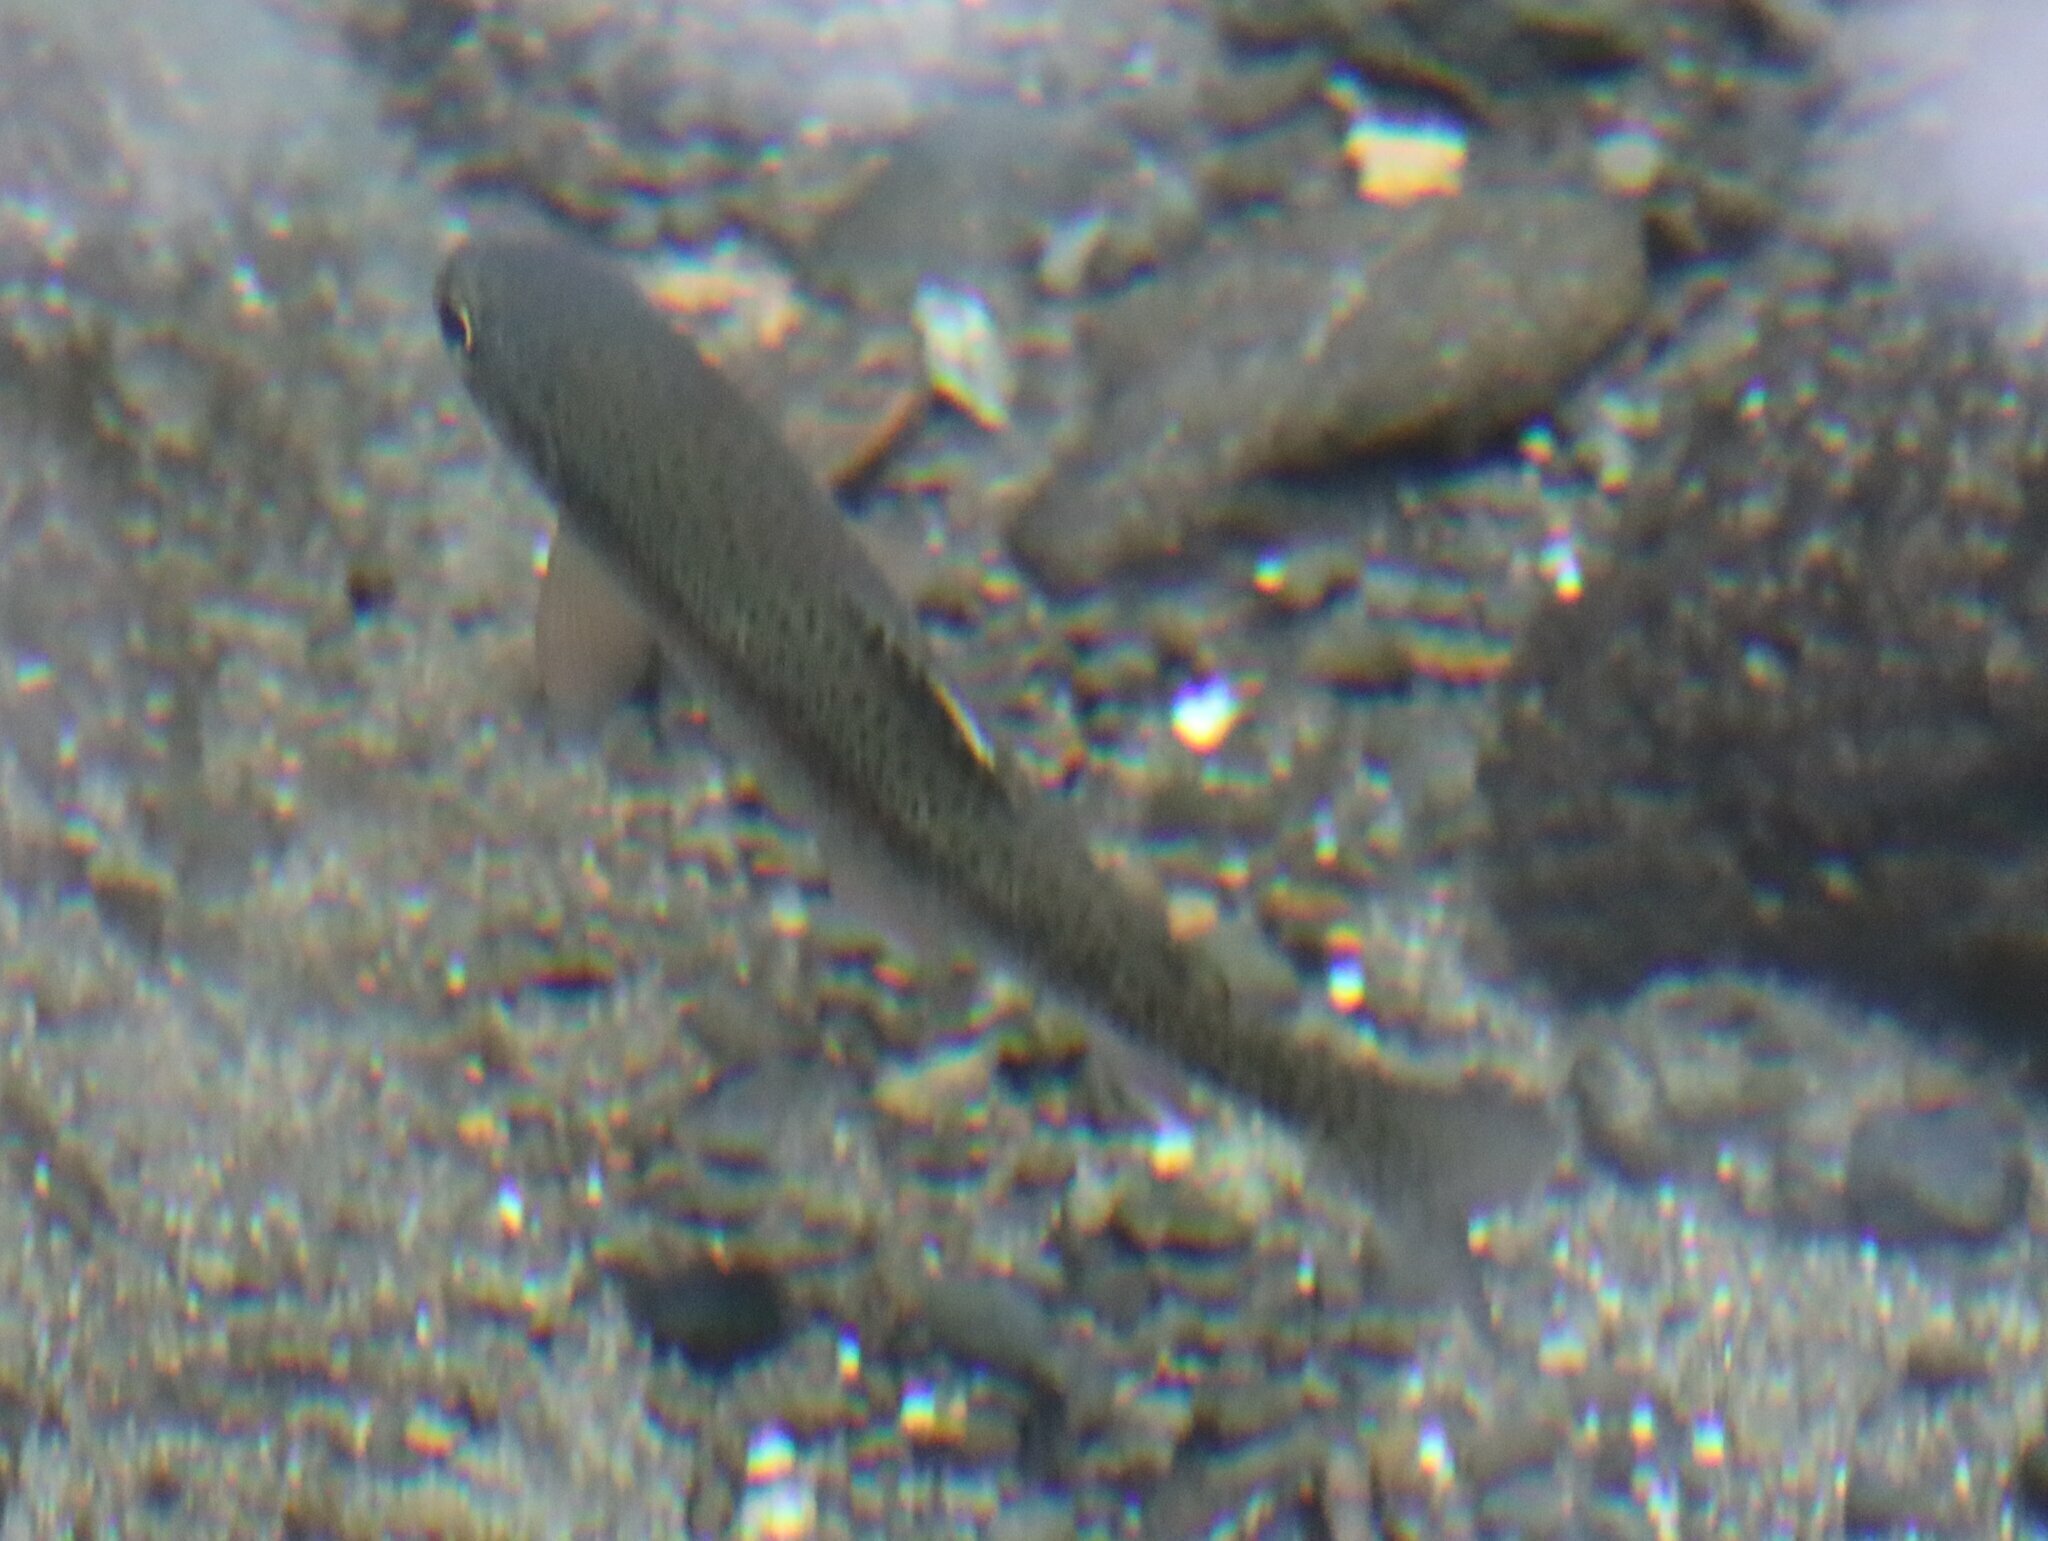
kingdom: Animalia
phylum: Chordata
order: Salmoniformes
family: Salmonidae
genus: Oncorhynchus
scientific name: Oncorhynchus mykiss
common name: Rainbow trout
